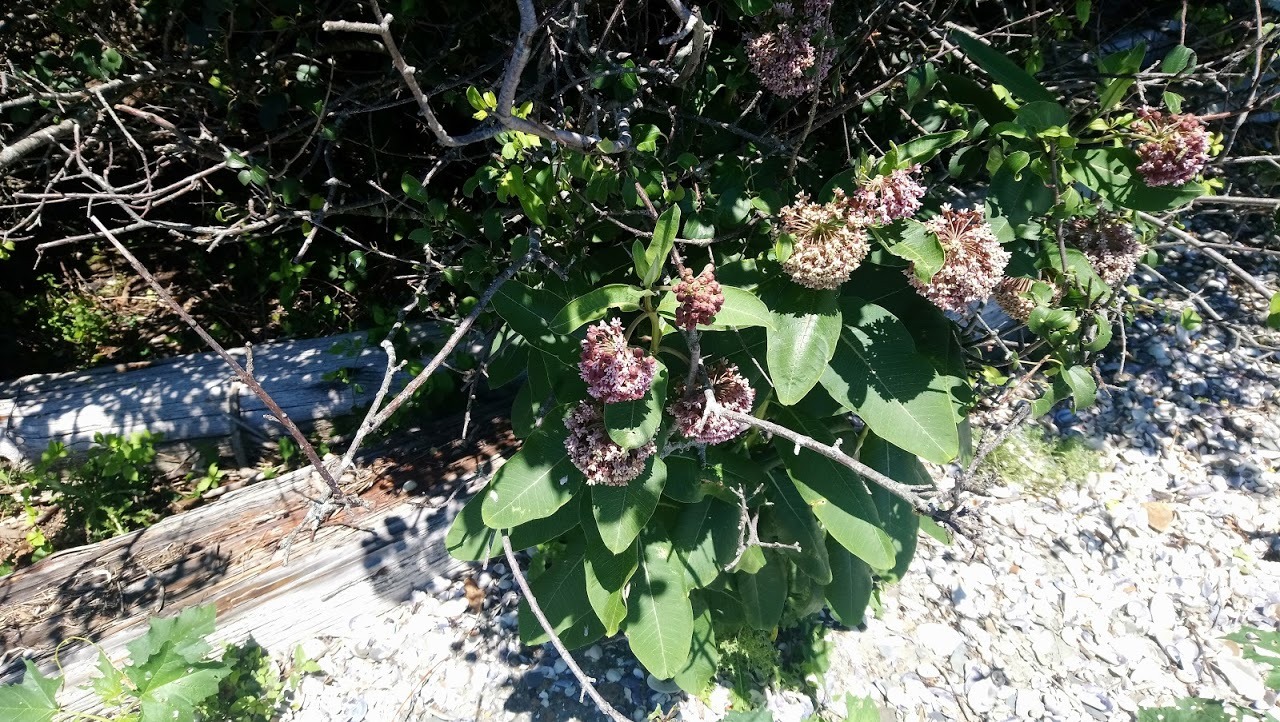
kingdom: Plantae
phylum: Tracheophyta
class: Magnoliopsida
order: Gentianales
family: Apocynaceae
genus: Asclepias
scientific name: Asclepias syriaca
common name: Common milkweed
